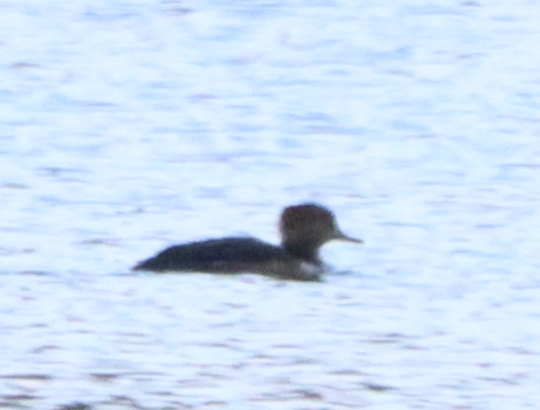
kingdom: Animalia
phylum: Chordata
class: Aves
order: Anseriformes
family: Anatidae
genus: Lophodytes
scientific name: Lophodytes cucullatus
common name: Hooded merganser
